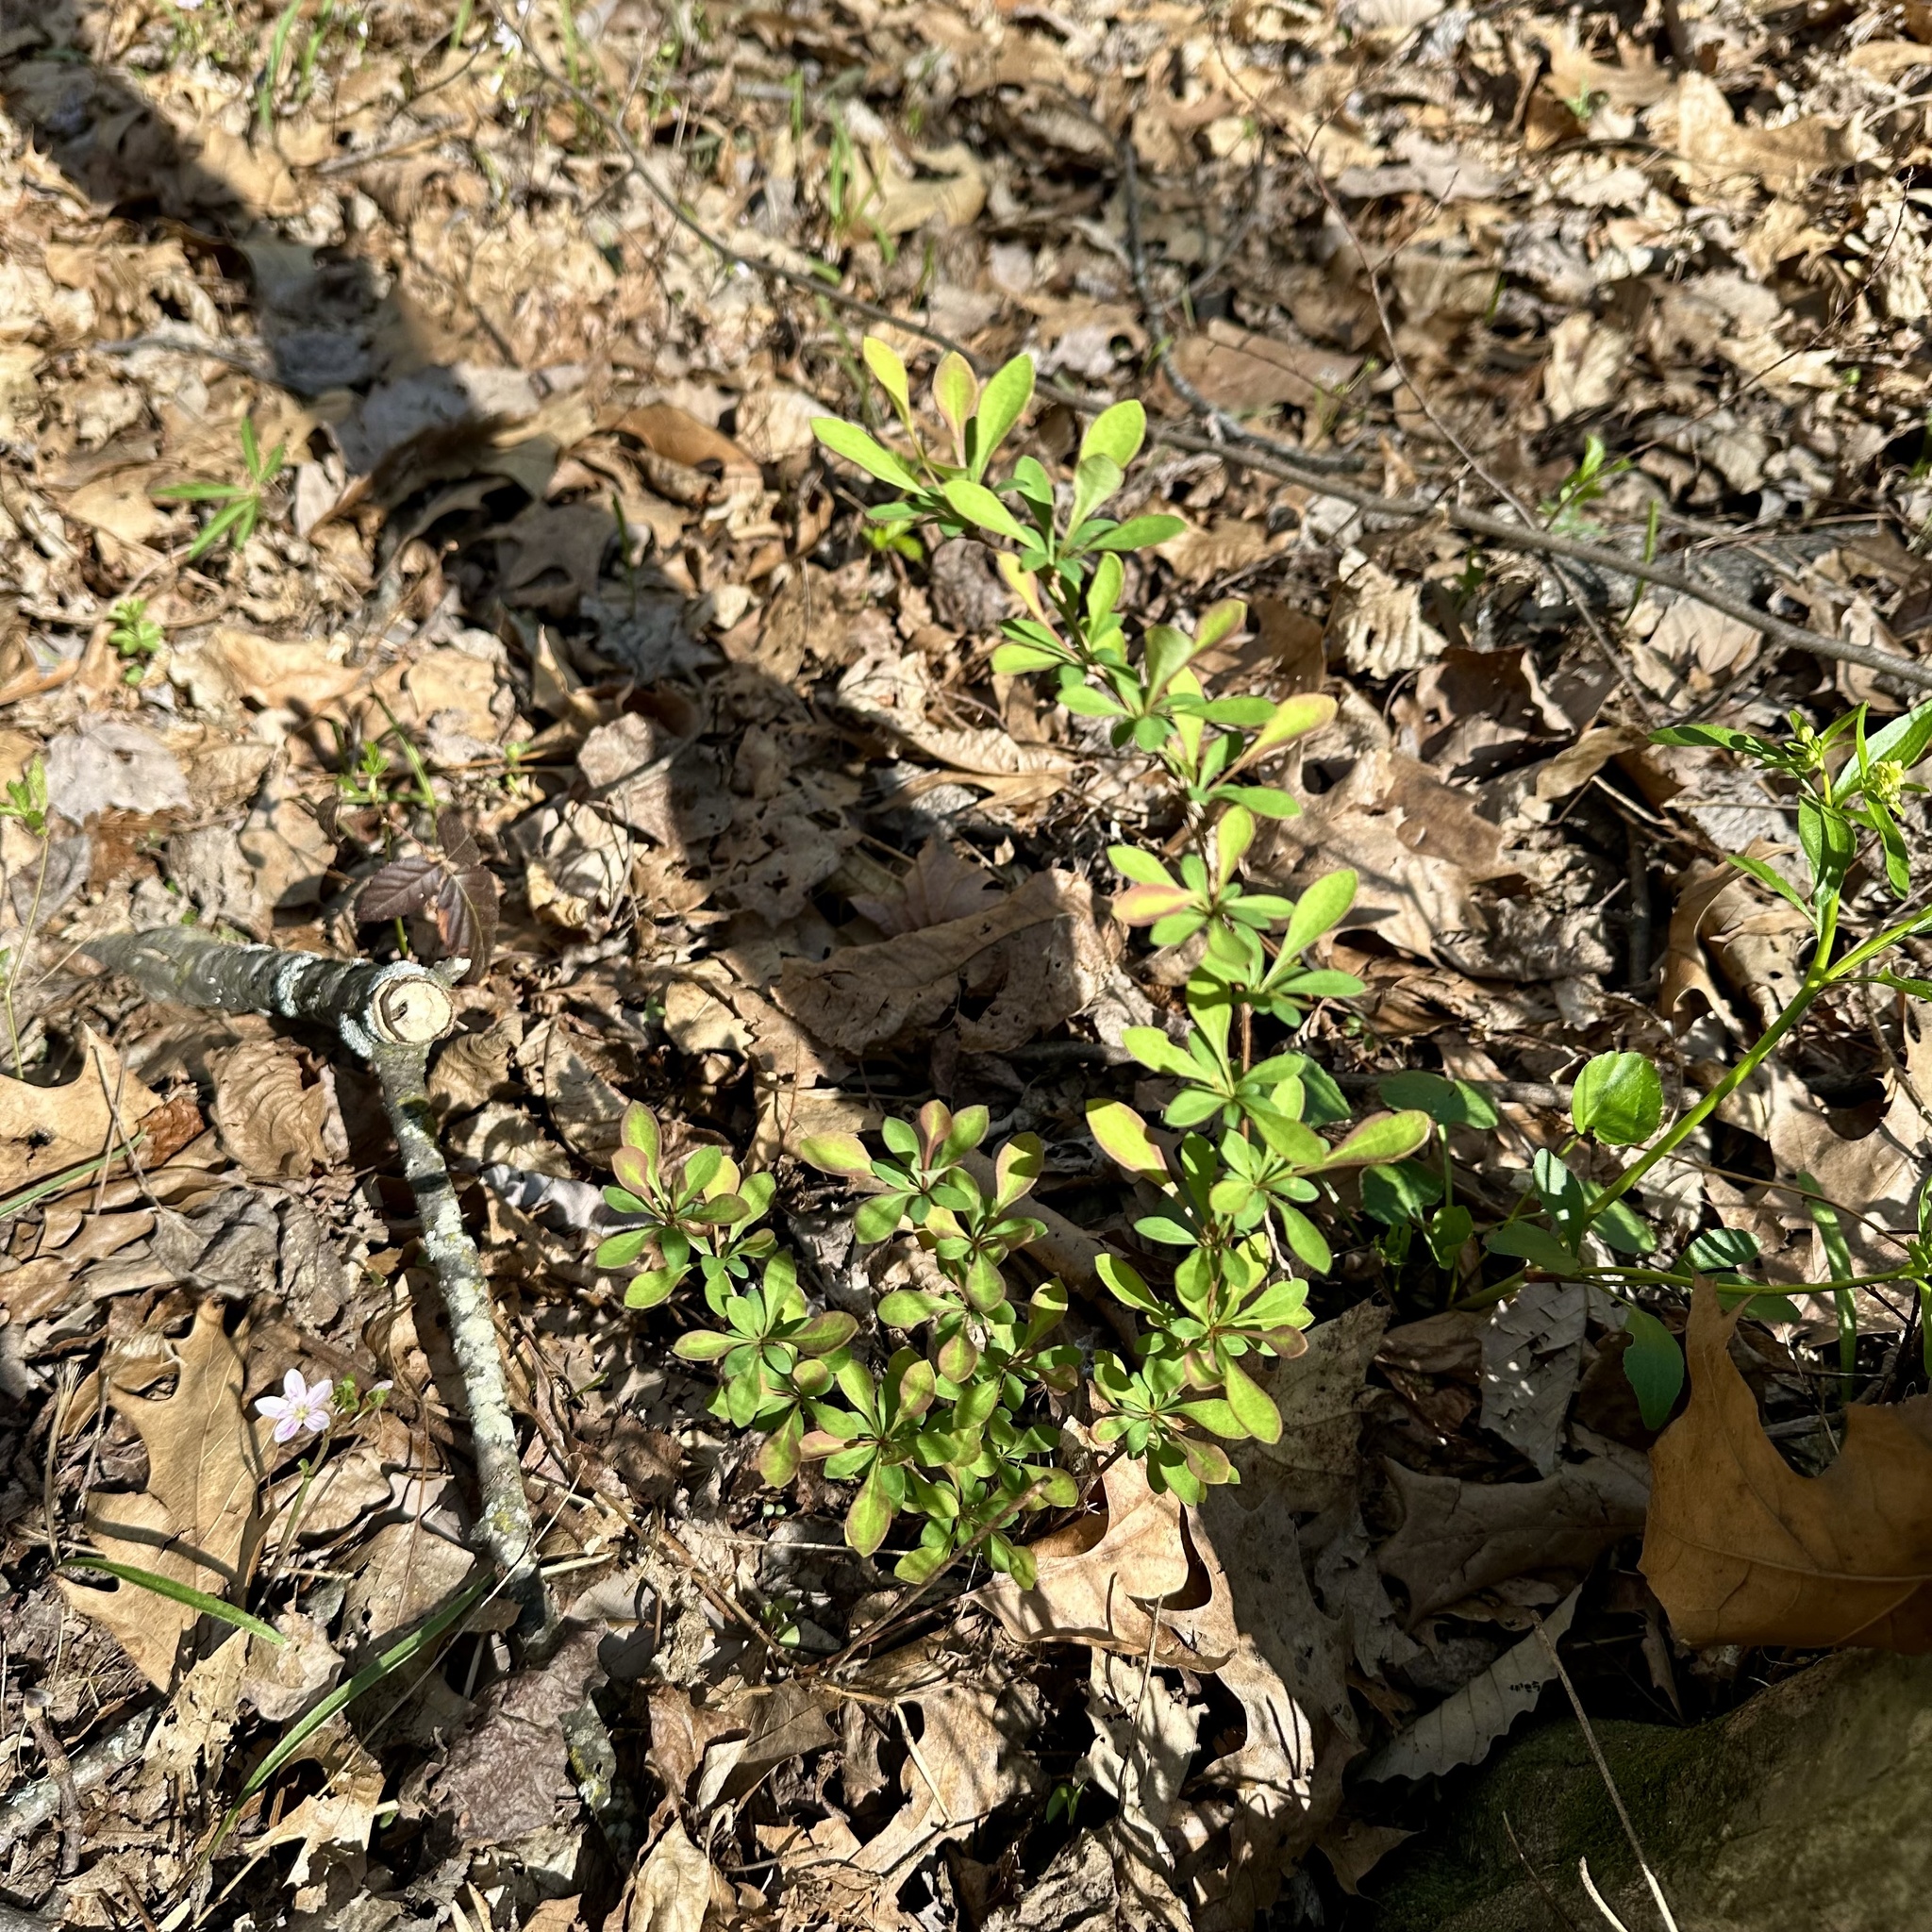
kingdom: Plantae
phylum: Tracheophyta
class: Magnoliopsida
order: Ranunculales
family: Berberidaceae
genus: Berberis
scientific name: Berberis thunbergii
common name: Japanese barberry
